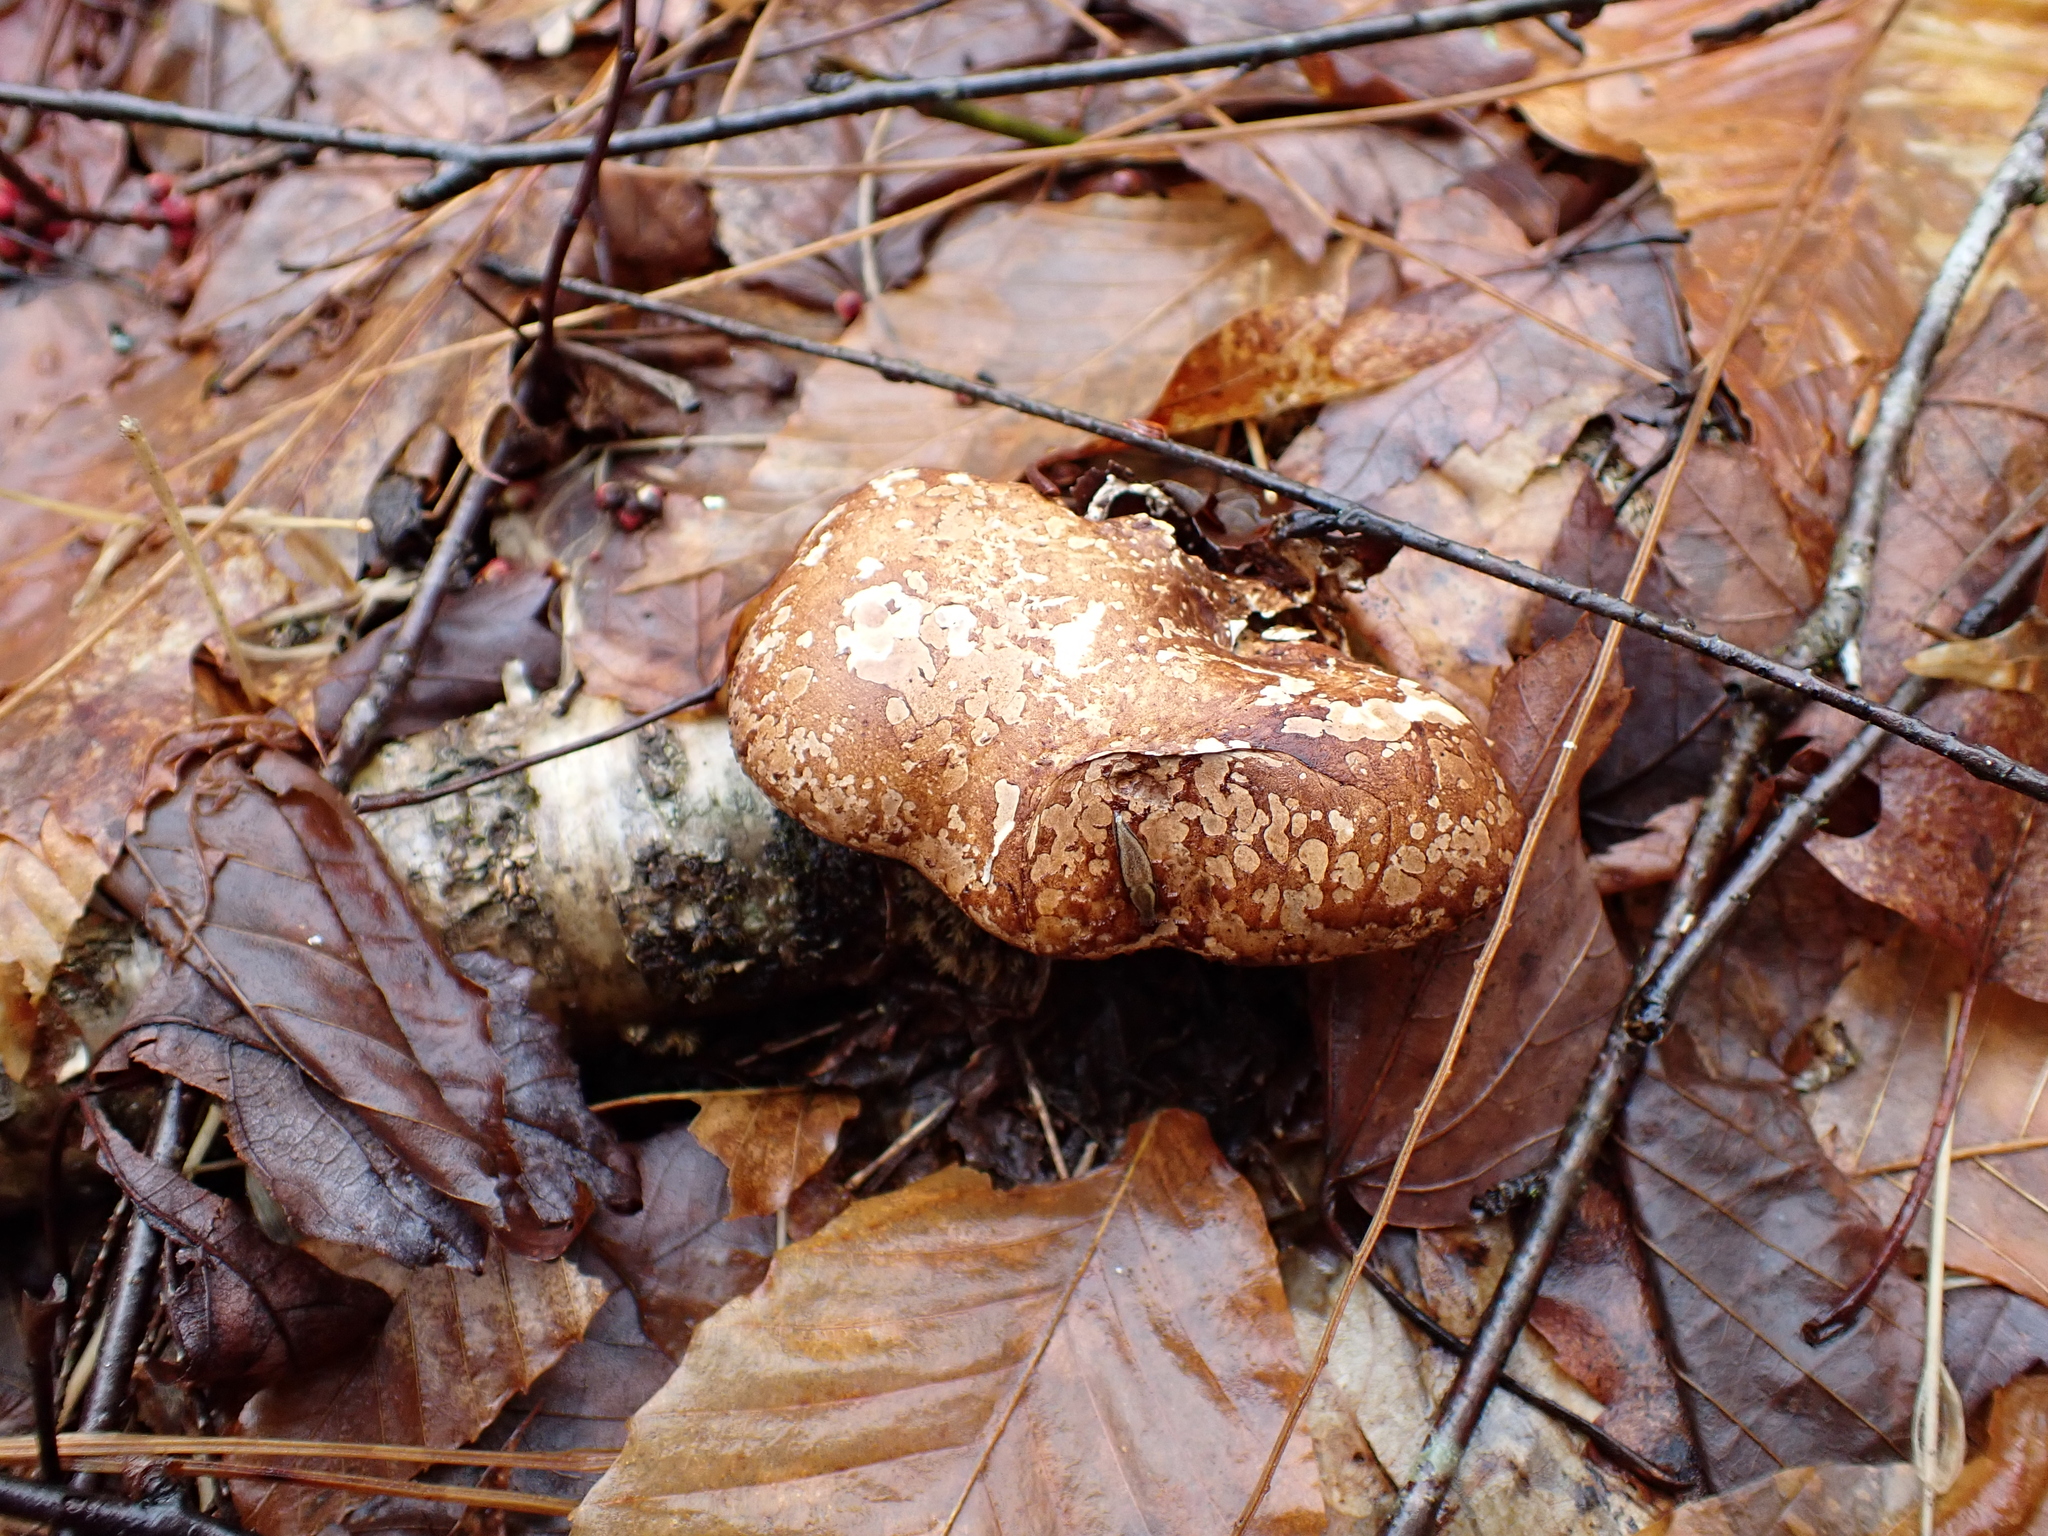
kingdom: Fungi
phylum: Basidiomycota
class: Agaricomycetes
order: Polyporales
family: Fomitopsidaceae
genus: Fomitopsis
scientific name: Fomitopsis betulina
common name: Birch polypore
